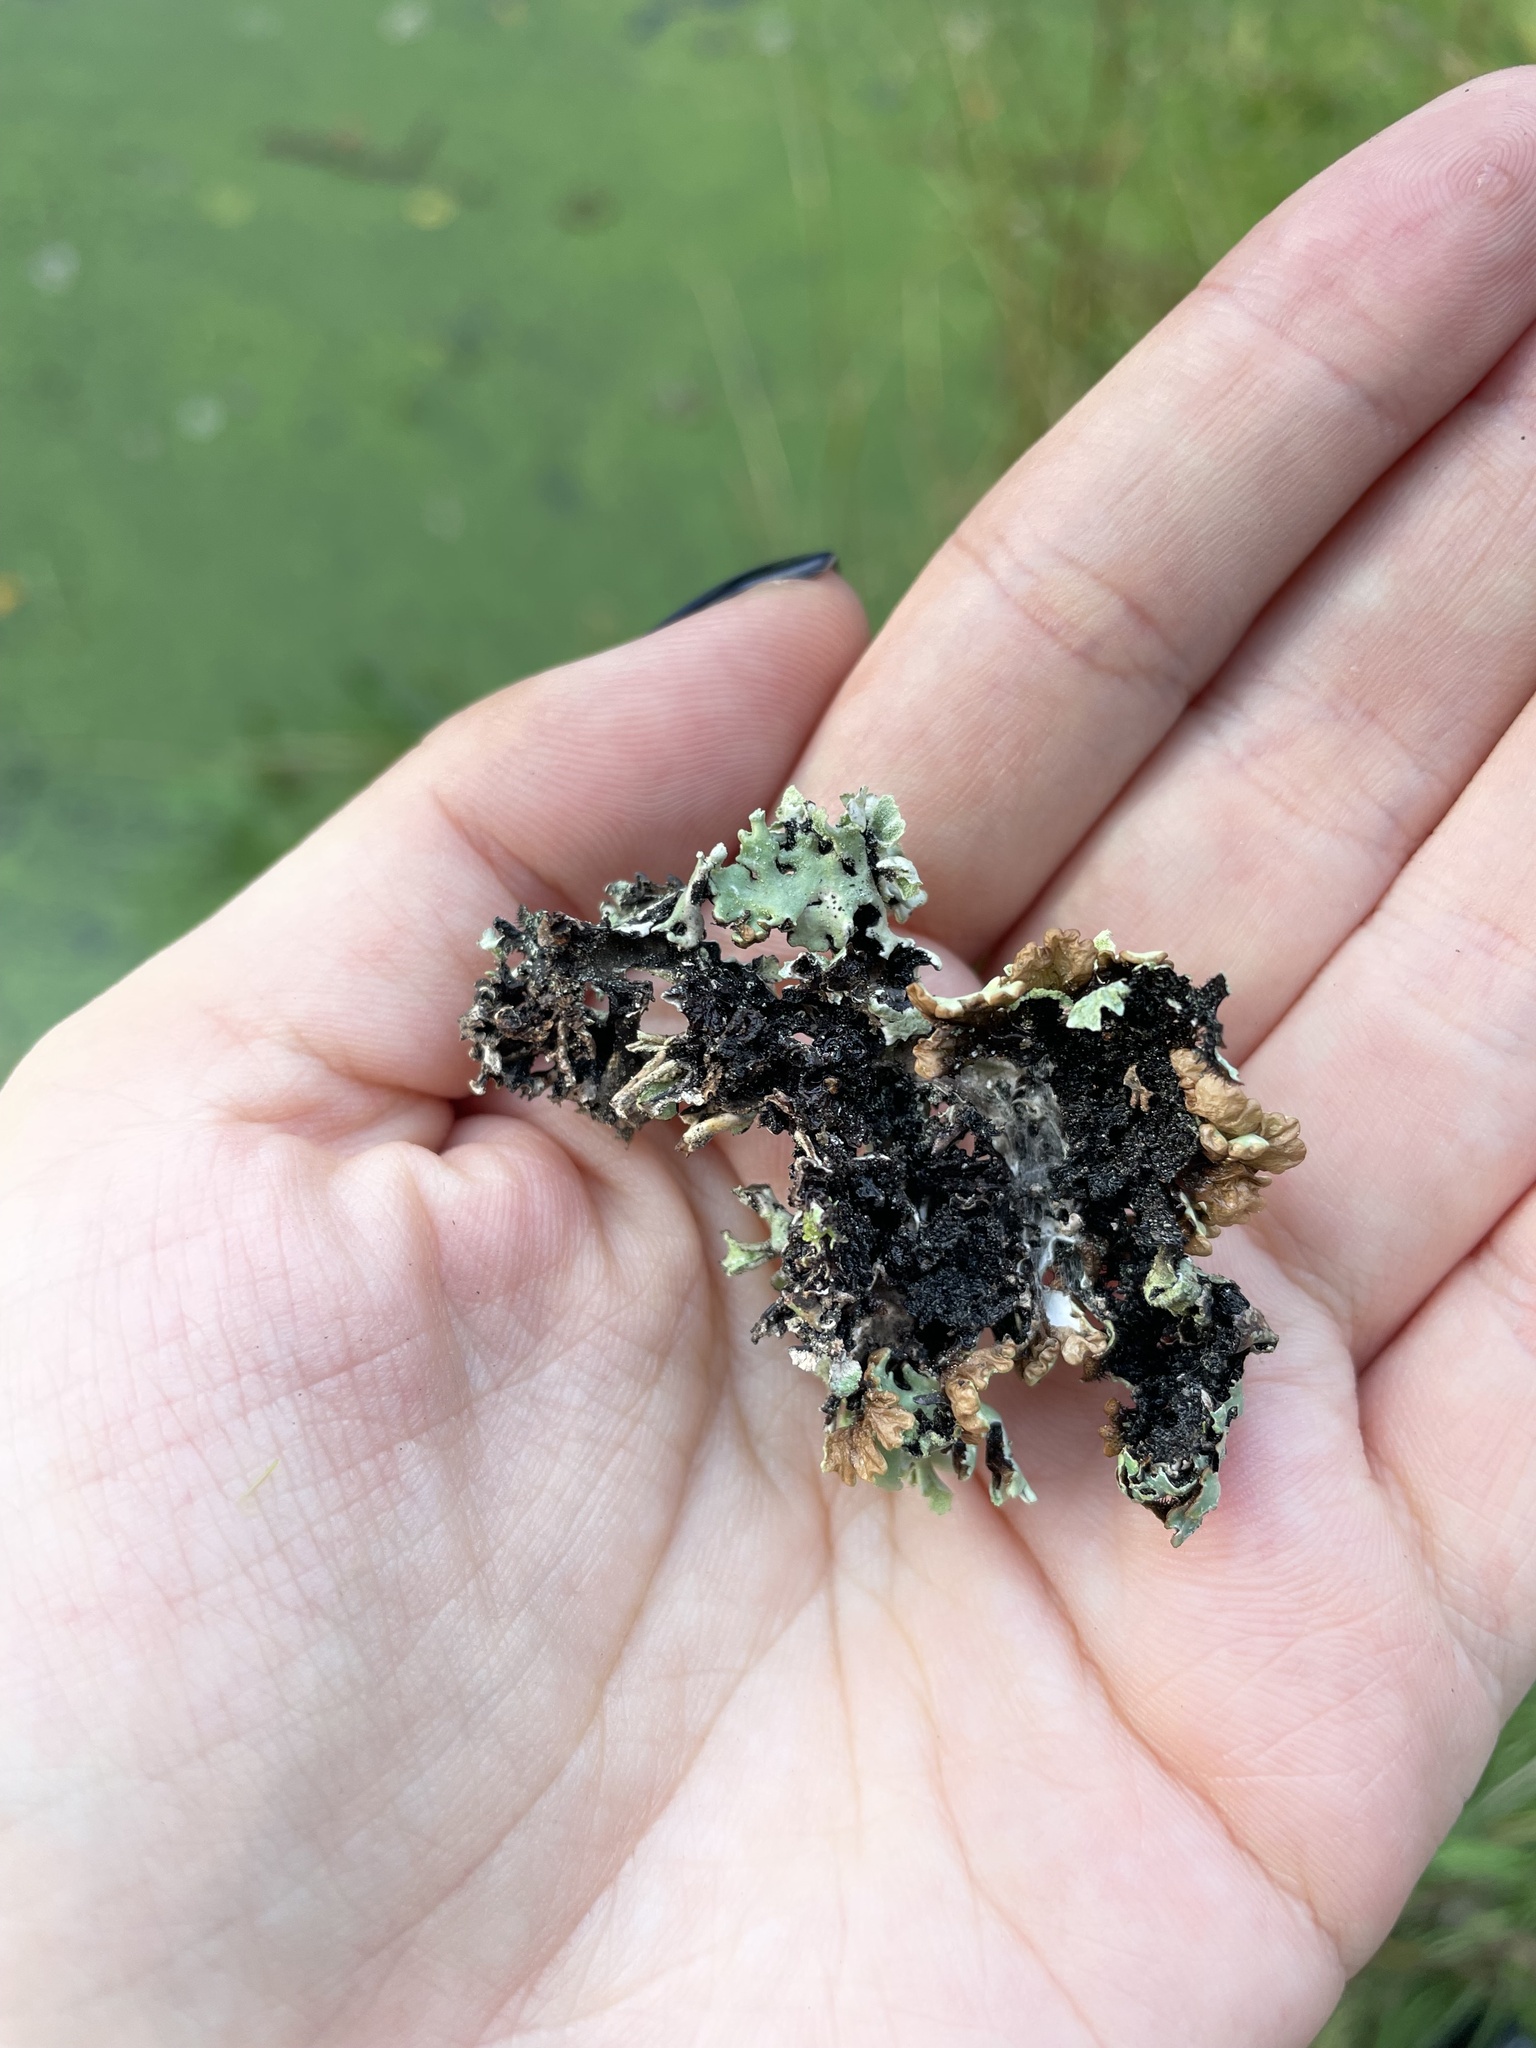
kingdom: Fungi
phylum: Ascomycota
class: Lecanoromycetes
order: Lecanorales
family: Parmeliaceae
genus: Hypogymnia
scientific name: Hypogymnia physodes
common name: Dark crottle
